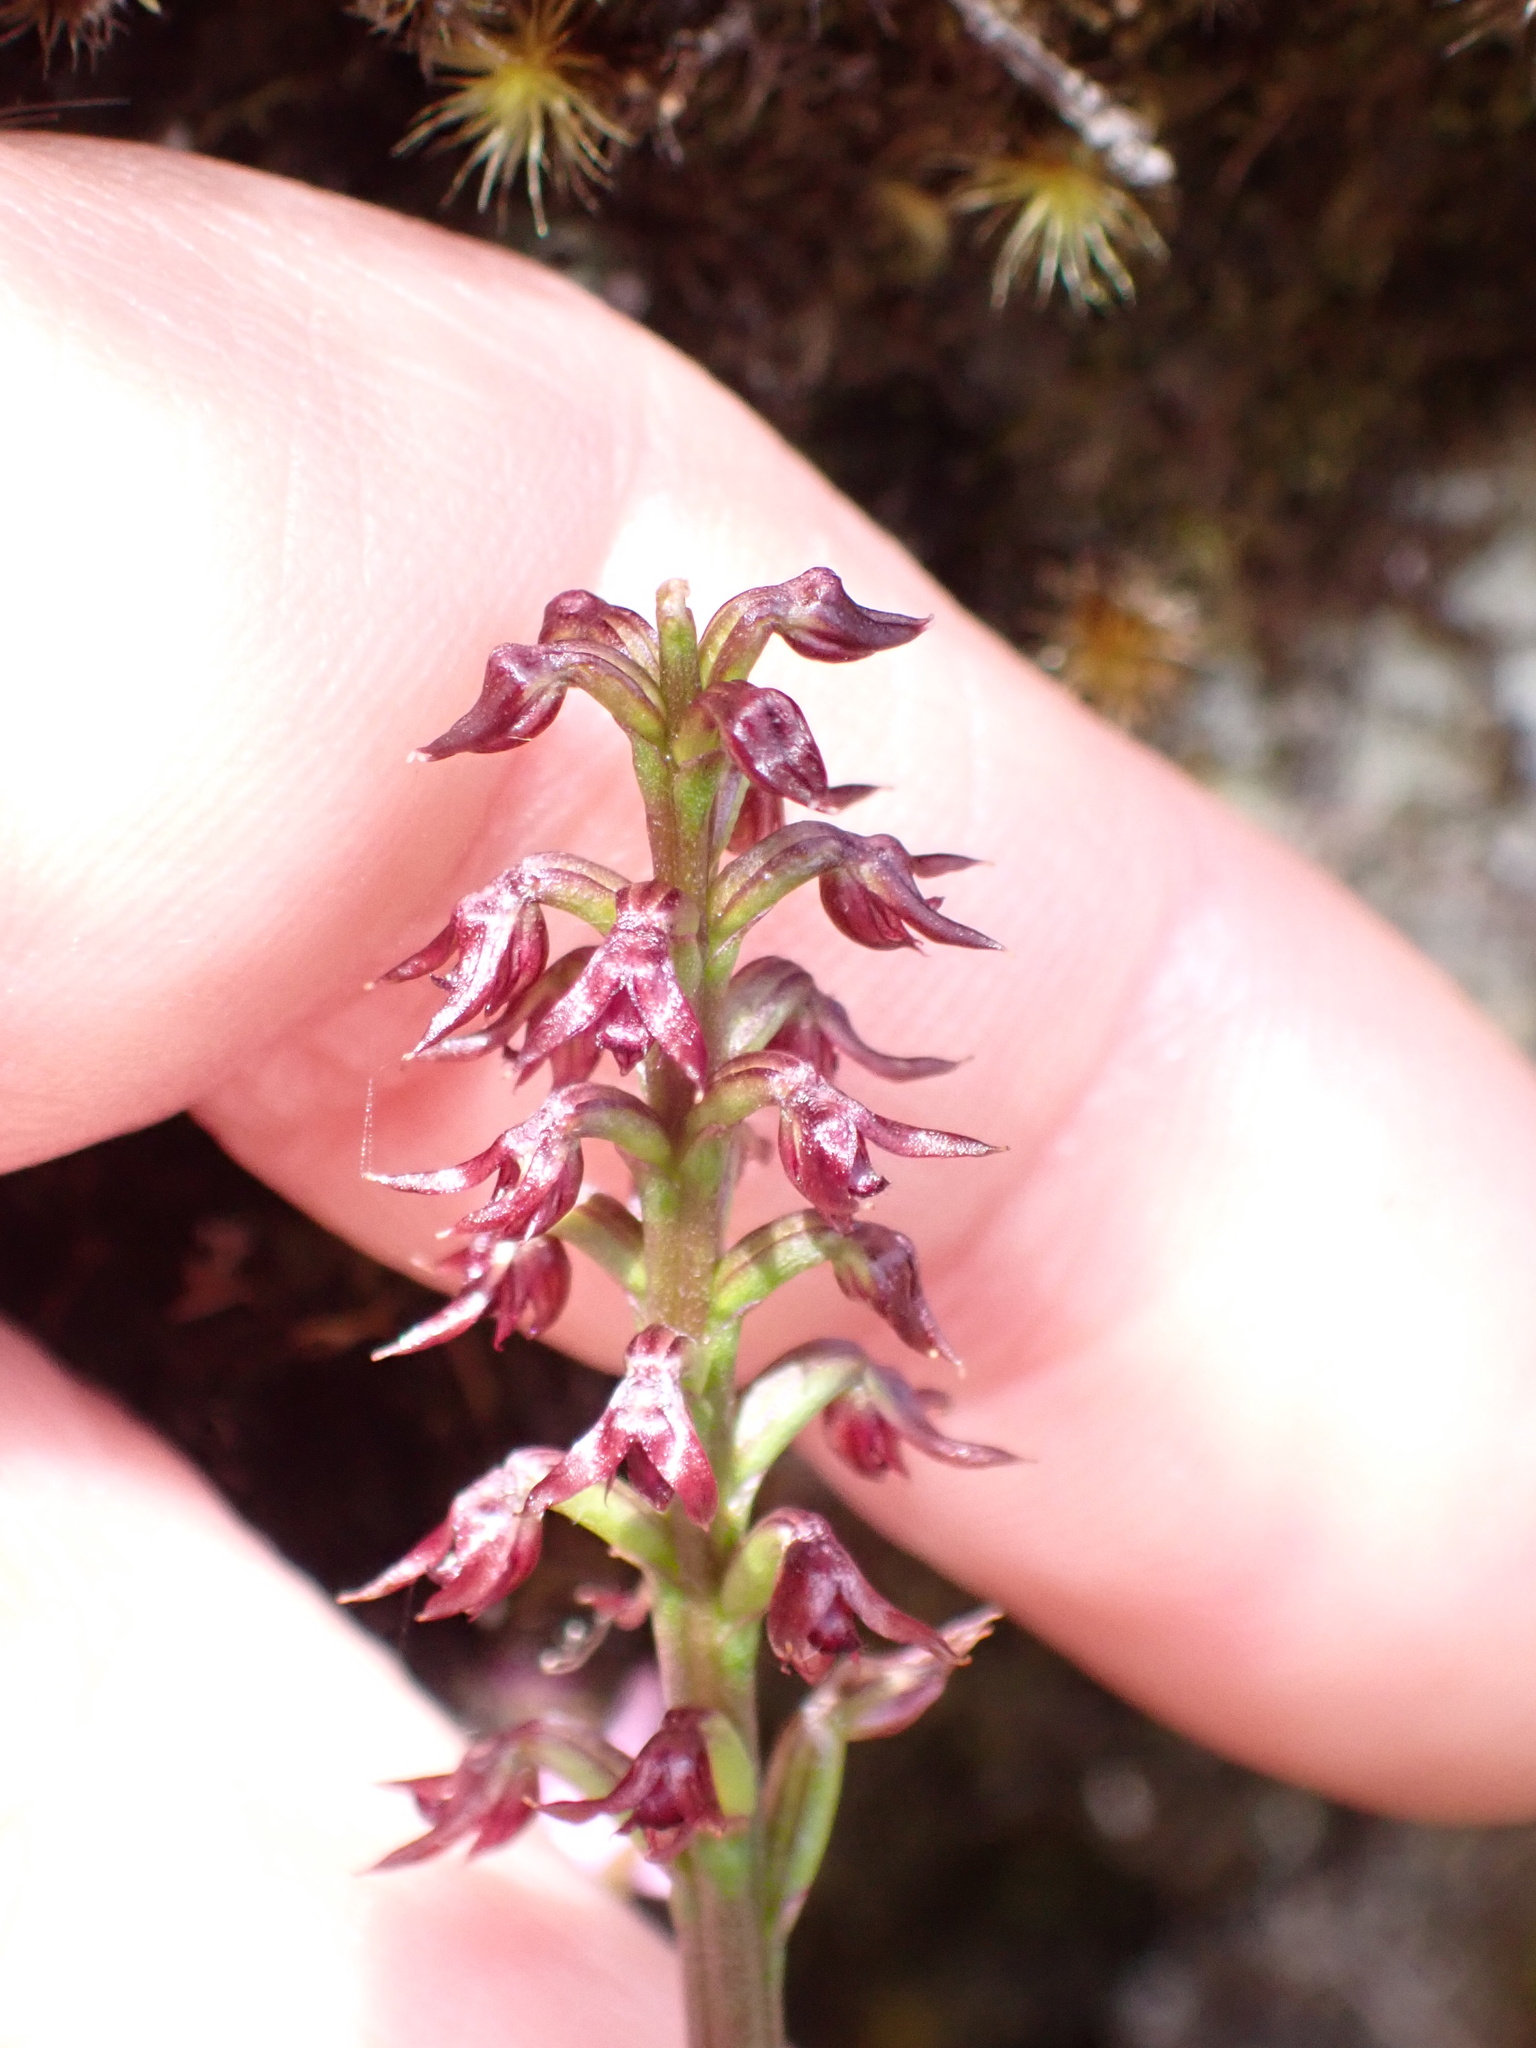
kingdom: Plantae
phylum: Tracheophyta
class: Liliopsida
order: Asparagales
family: Orchidaceae
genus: Genoplesium
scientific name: Genoplesium nudum
